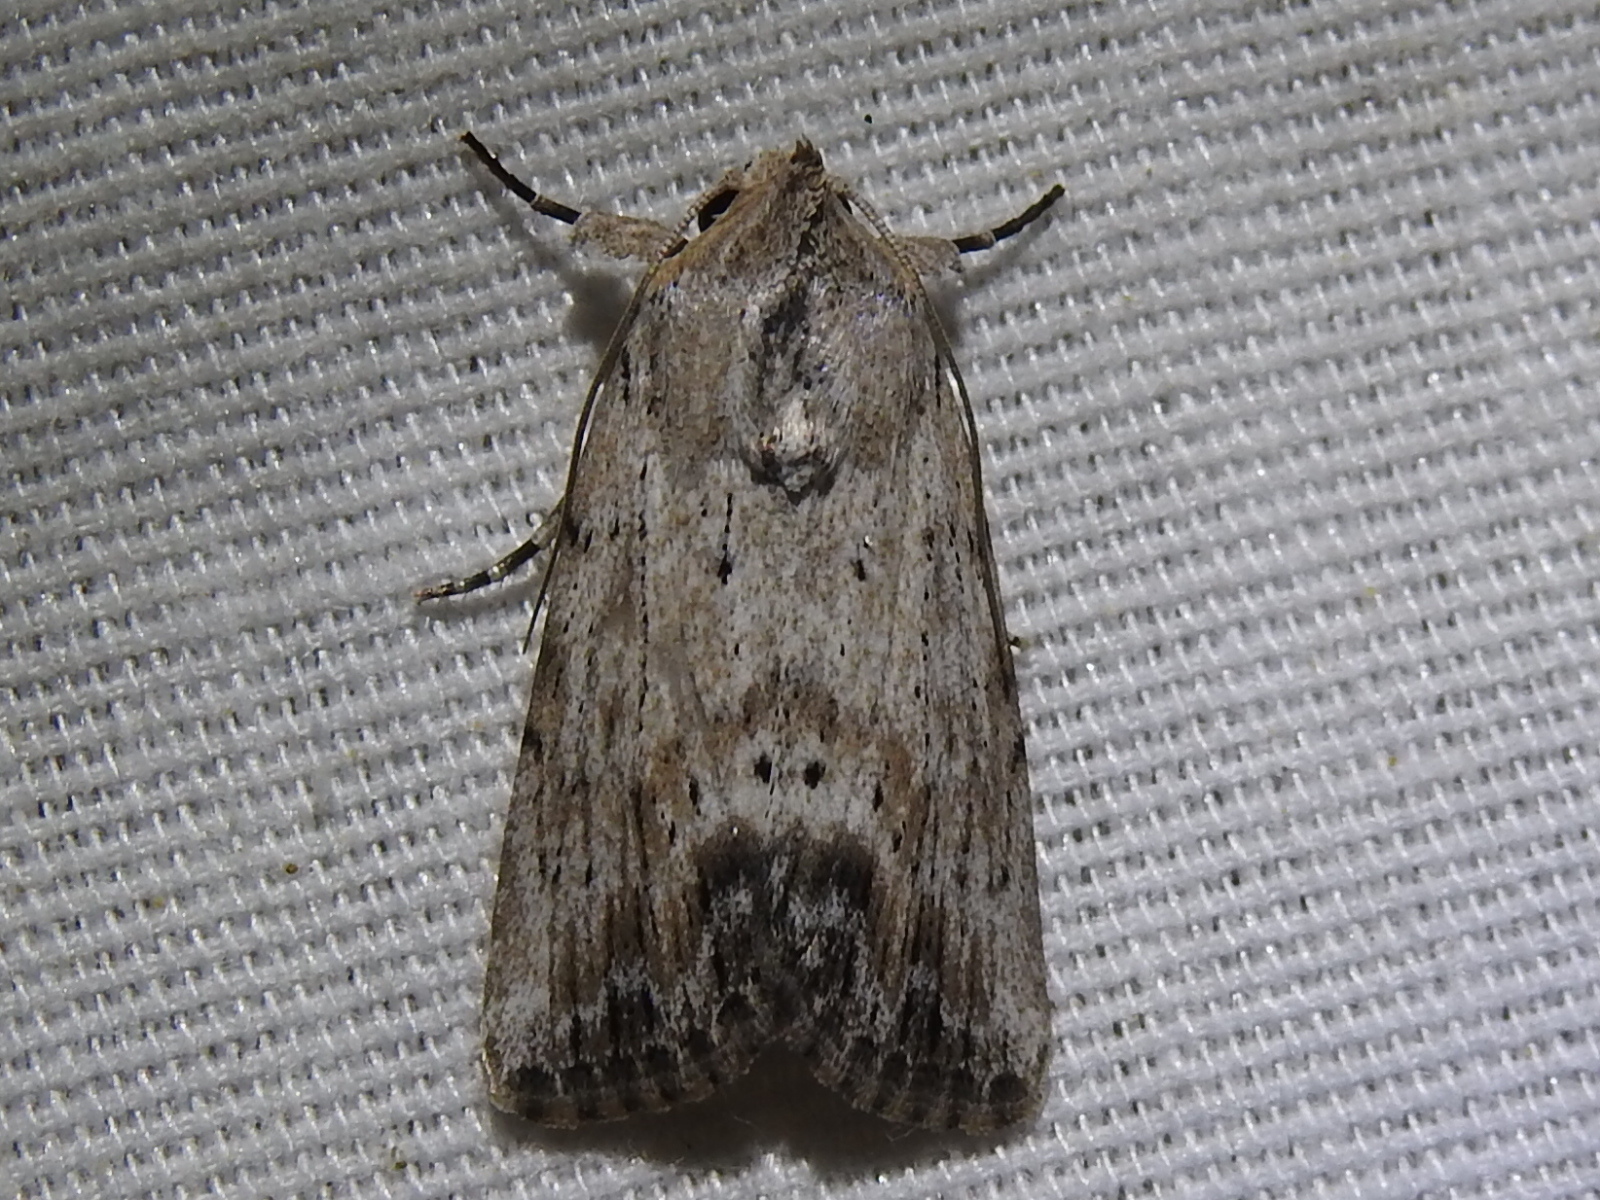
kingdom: Animalia
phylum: Arthropoda
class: Insecta
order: Lepidoptera
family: Noctuidae
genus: Catabenoides
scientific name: Catabenoides terminellus
